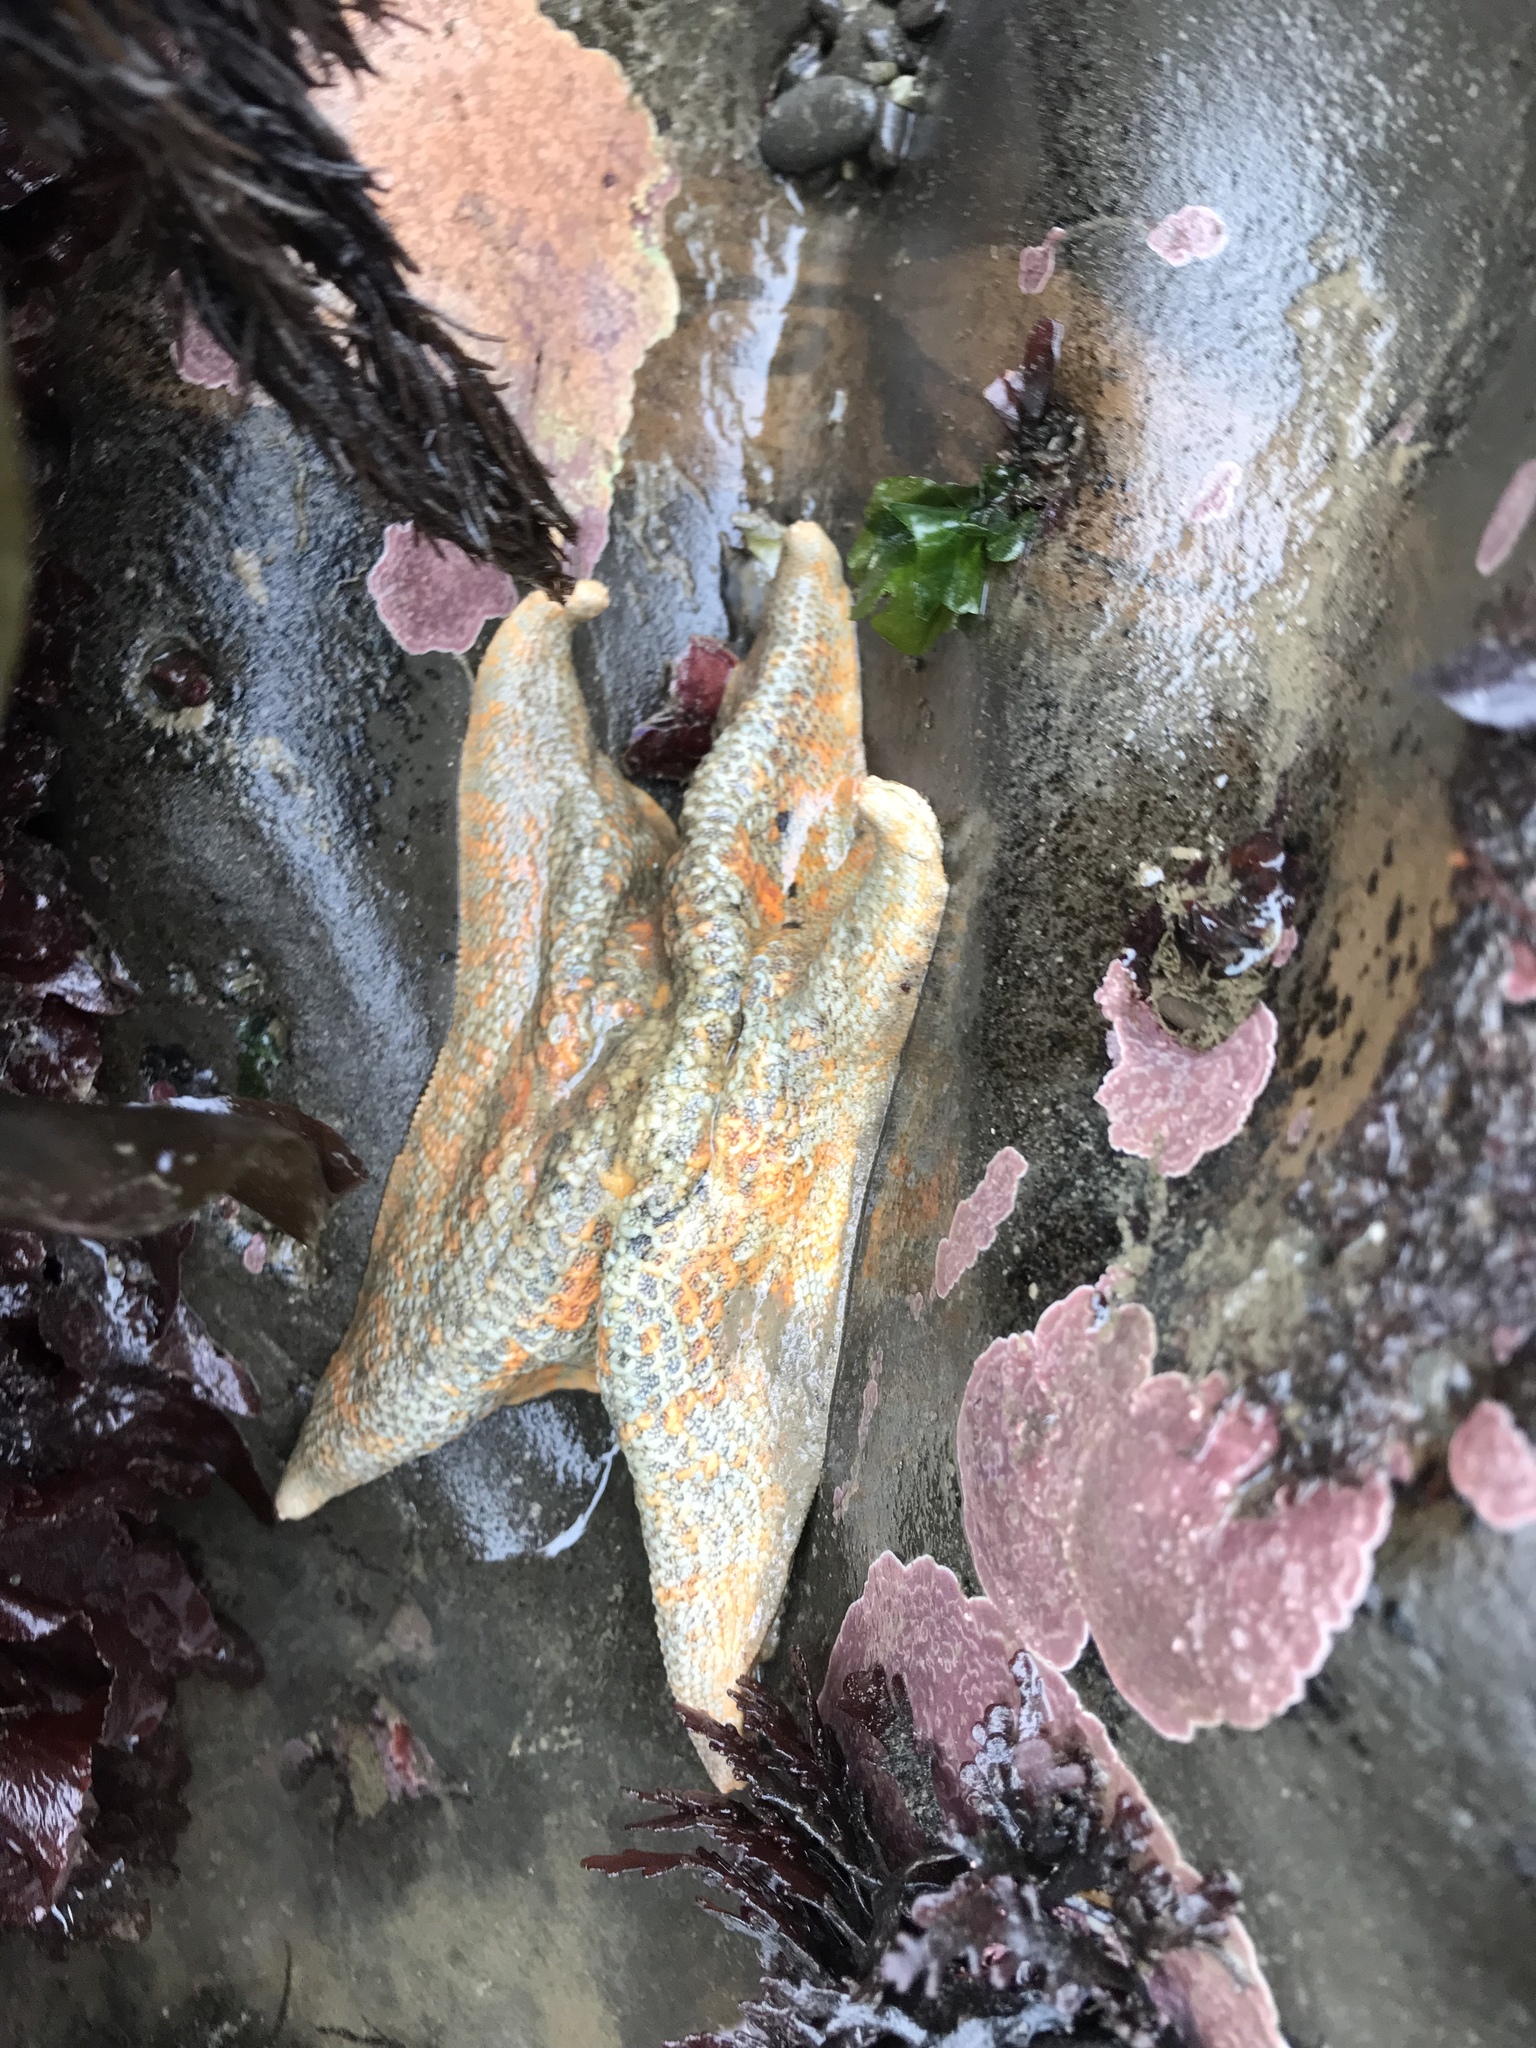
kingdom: Animalia
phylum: Echinodermata
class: Asteroidea
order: Valvatida
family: Asterinidae
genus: Patiria
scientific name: Patiria miniata
